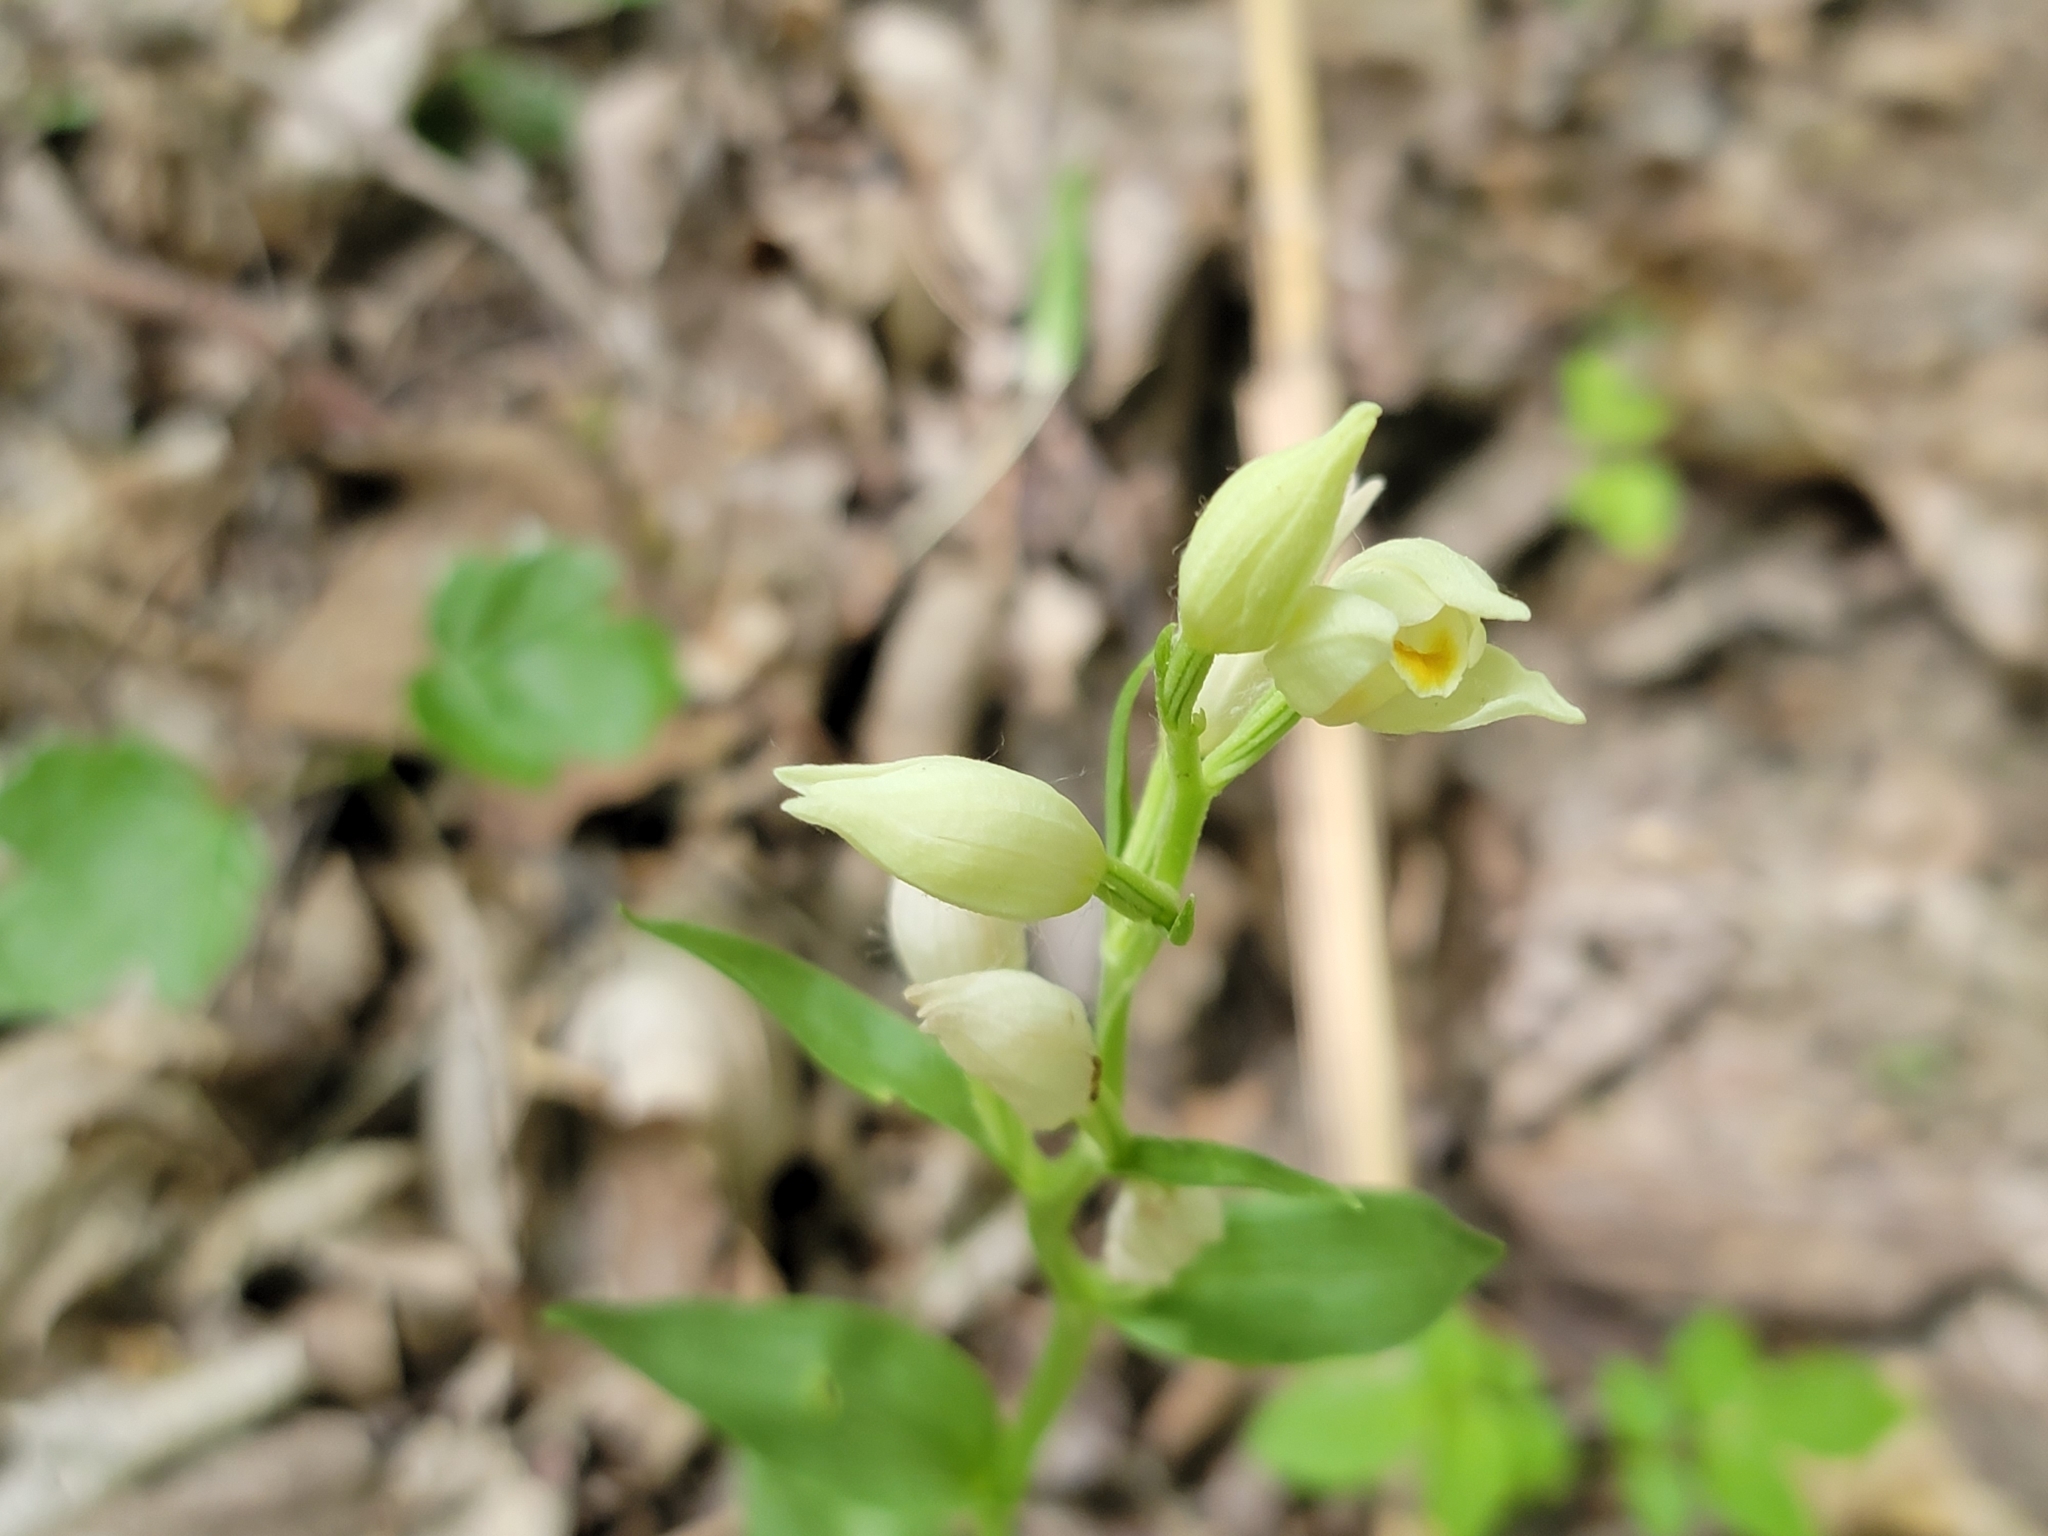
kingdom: Plantae
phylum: Tracheophyta
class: Liliopsida
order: Asparagales
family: Orchidaceae
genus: Cephalanthera
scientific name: Cephalanthera damasonium
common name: White helleborine
